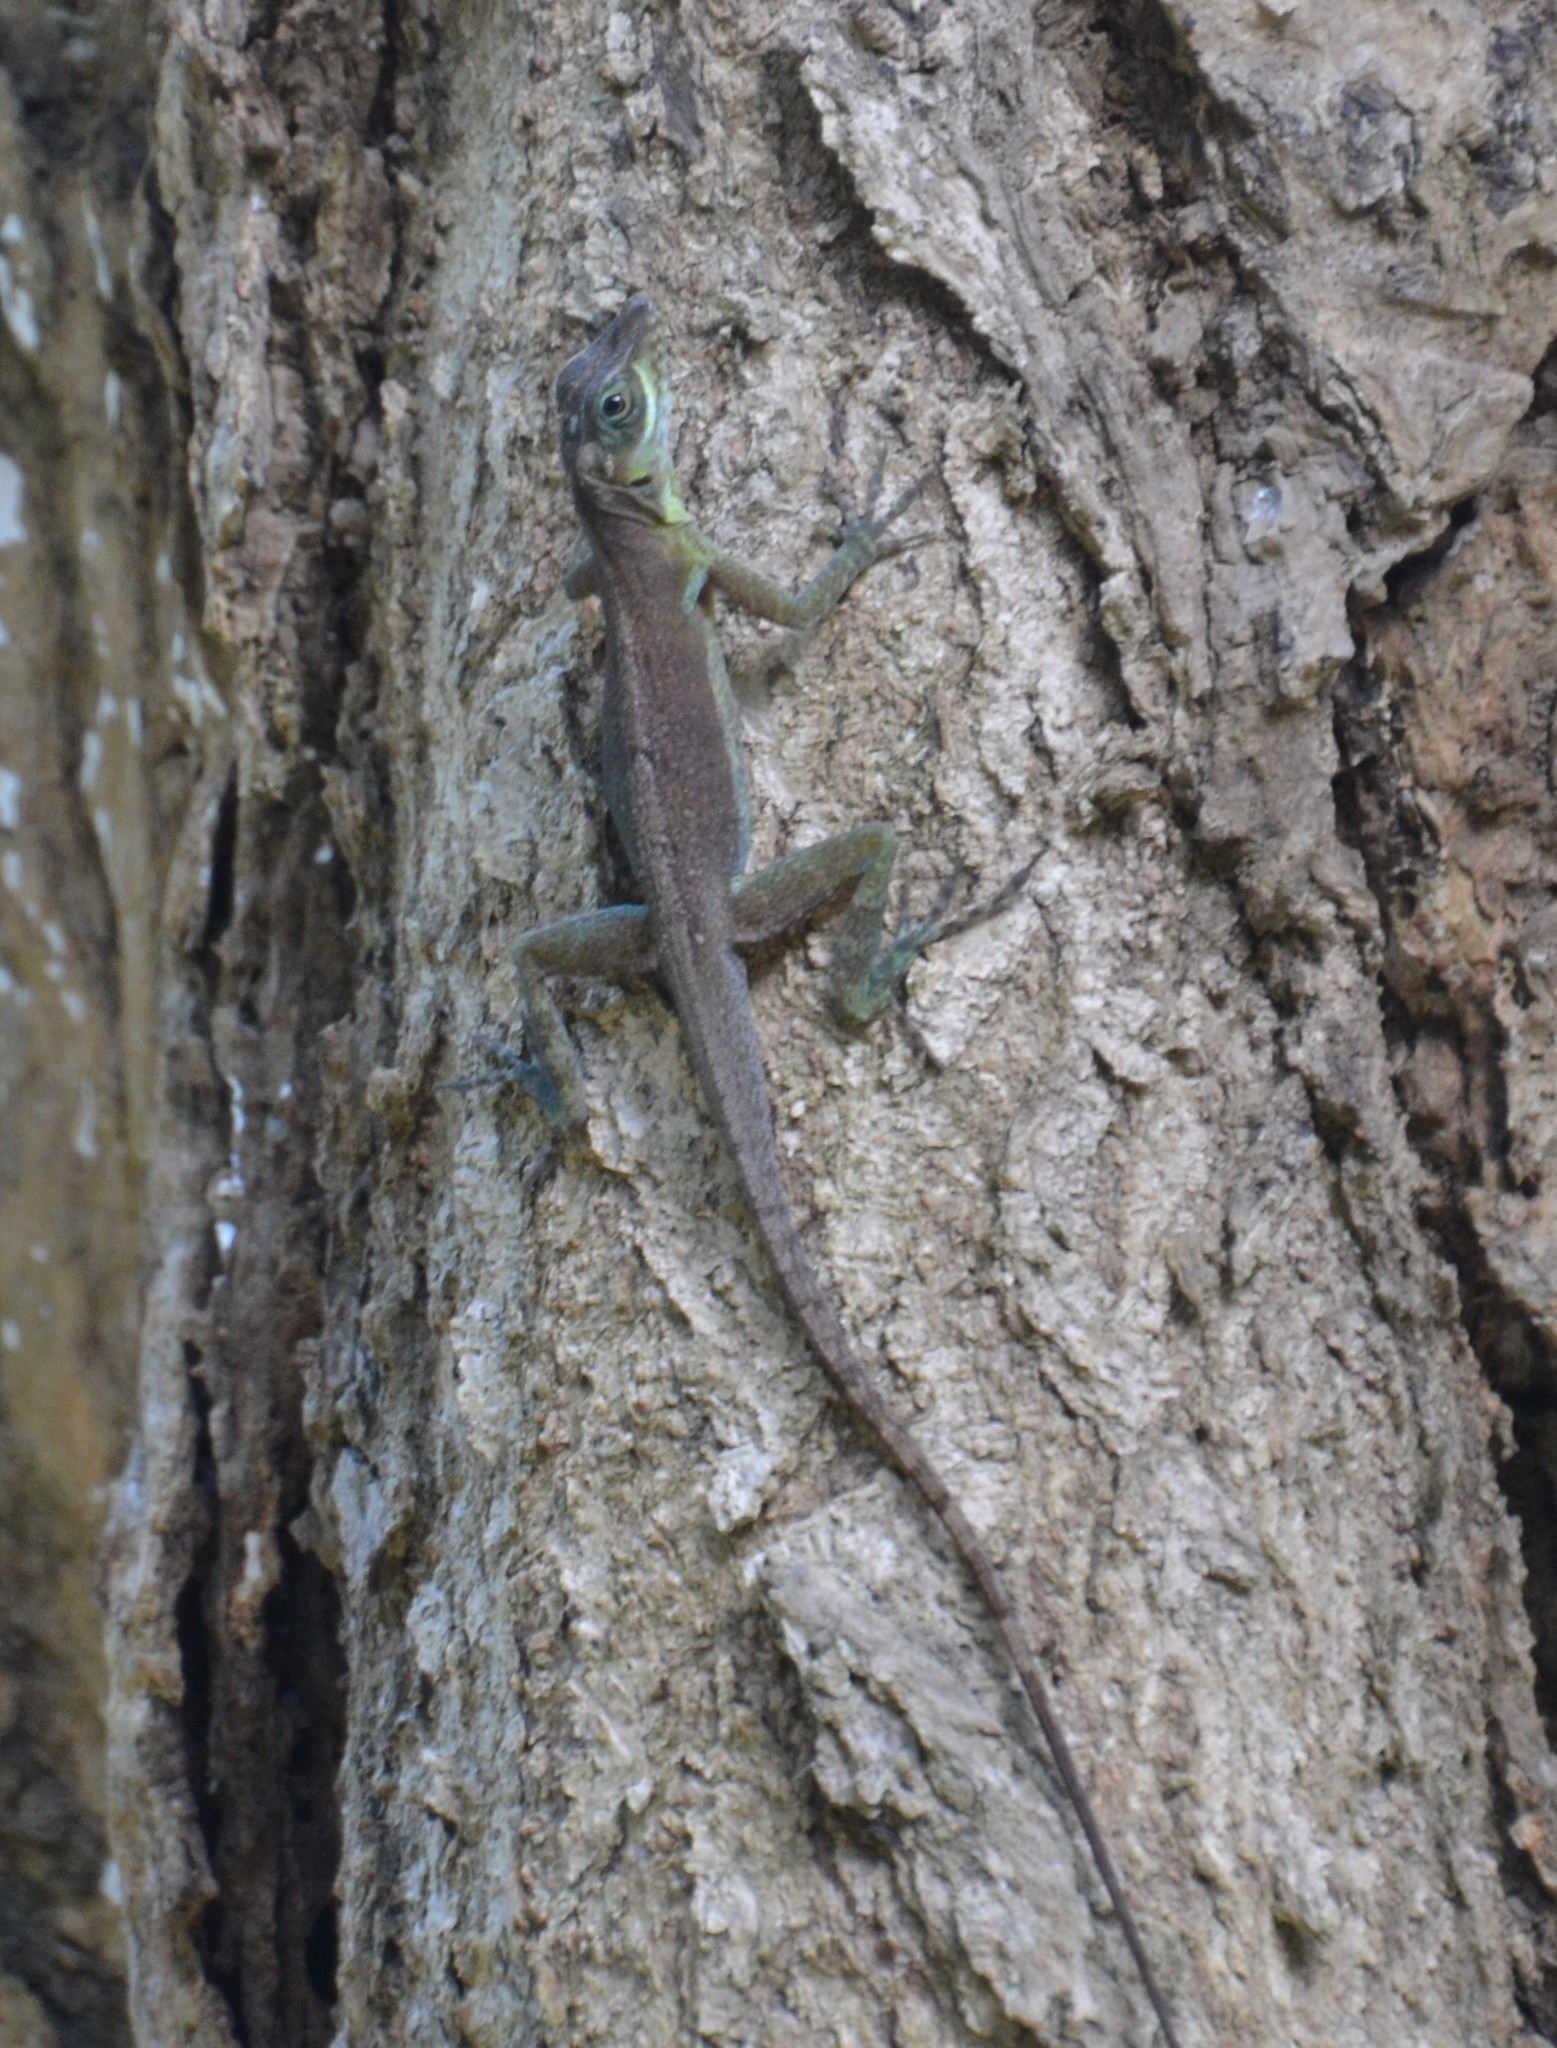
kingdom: Animalia
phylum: Chordata
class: Squamata
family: Dactyloidae
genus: Anolis
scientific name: Anolis richardii
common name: Grenada tree anole
